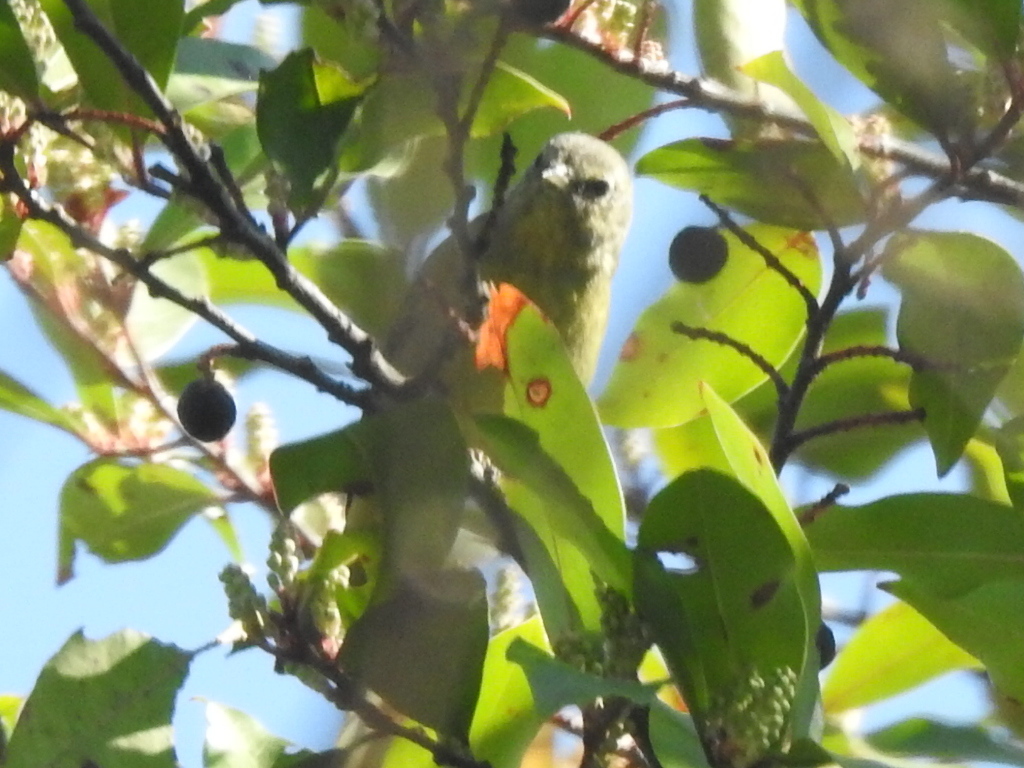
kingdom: Animalia
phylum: Chordata
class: Aves
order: Passeriformes
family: Parulidae
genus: Leiothlypis
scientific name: Leiothlypis celata
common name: Orange-crowned warbler
